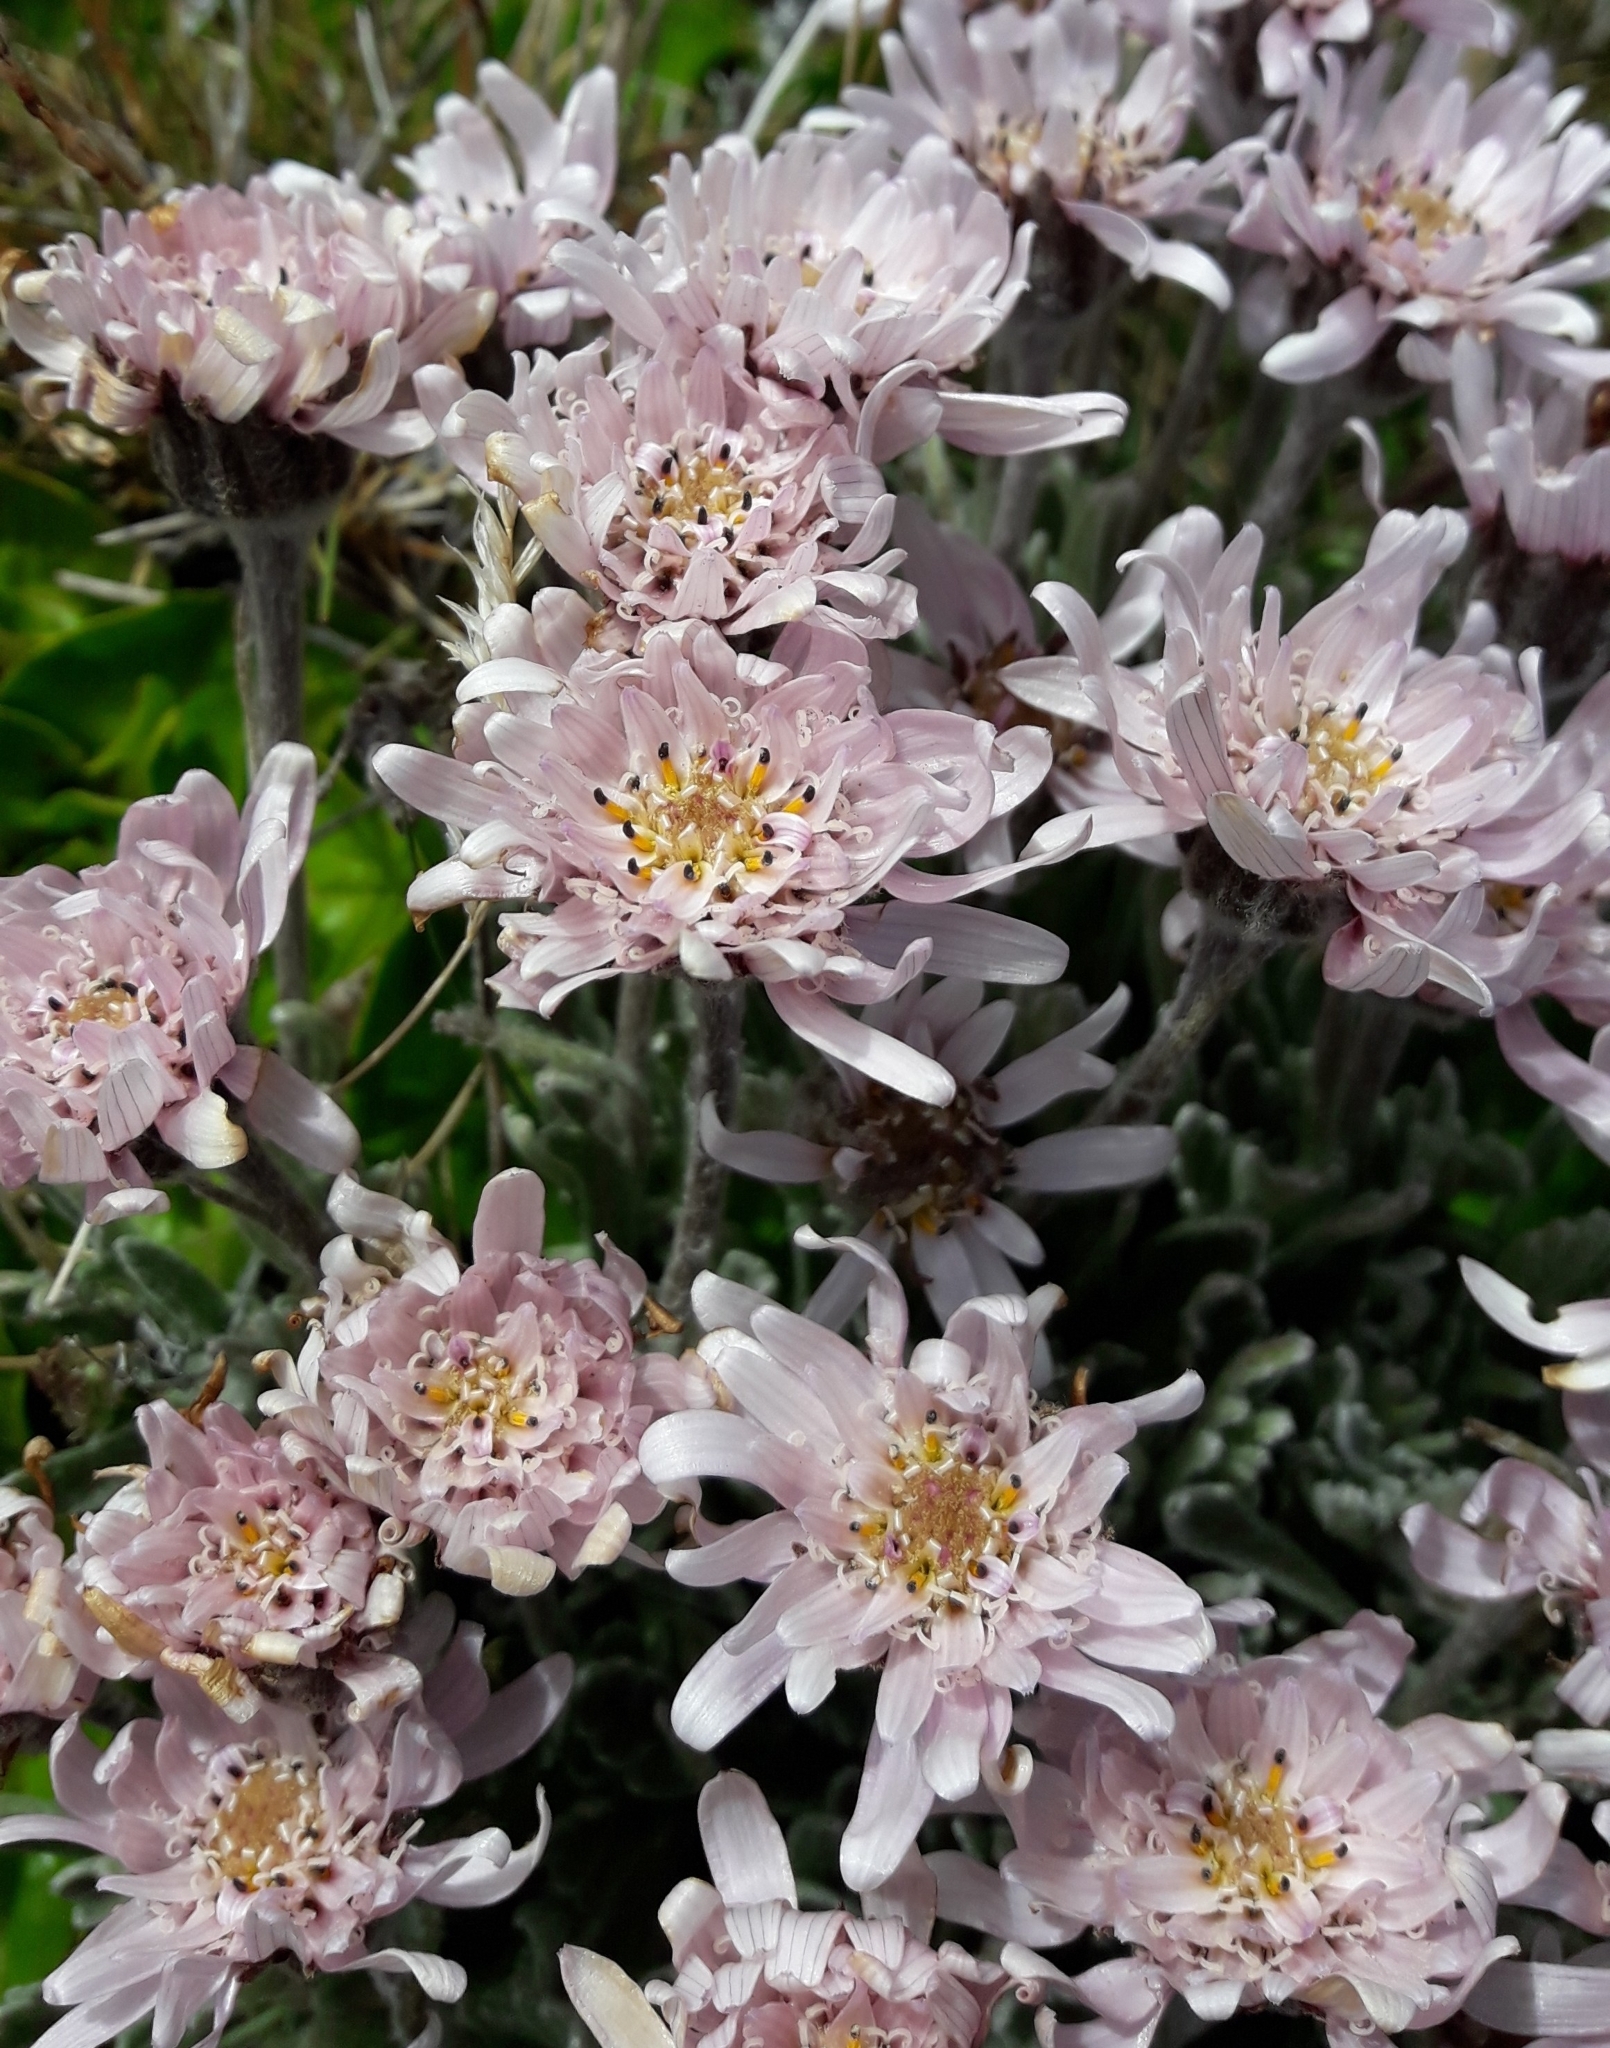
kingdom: Plantae
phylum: Tracheophyta
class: Magnoliopsida
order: Asterales
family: Asteraceae
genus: Leucheria
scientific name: Leucheria hahnii
